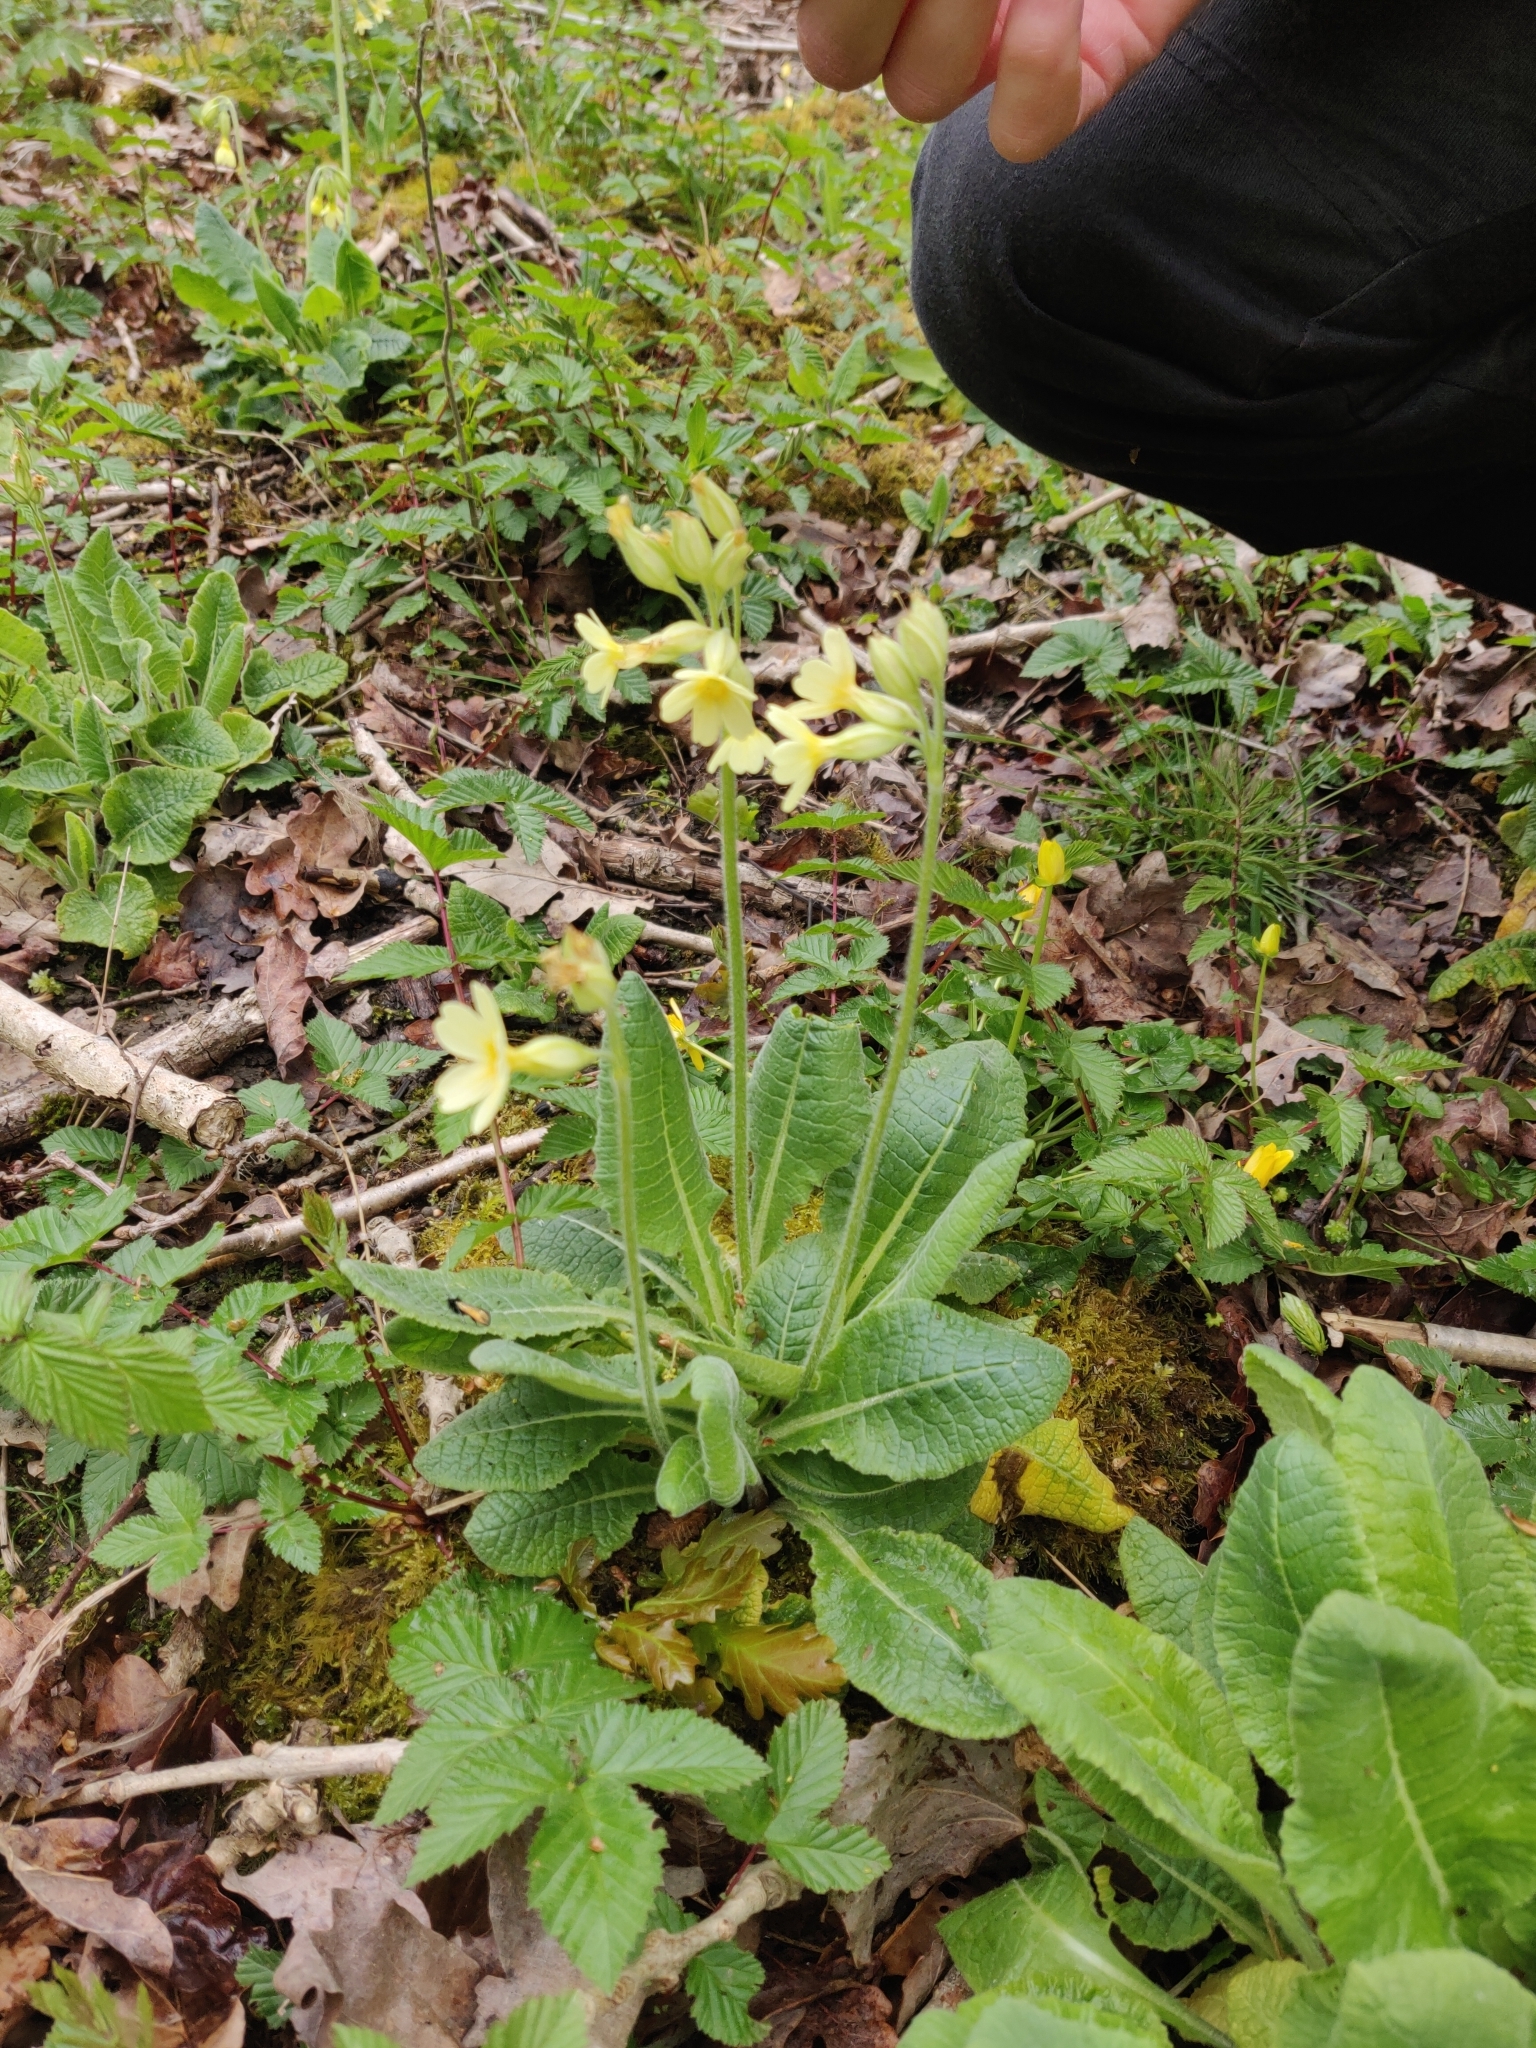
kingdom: Plantae
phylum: Tracheophyta
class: Magnoliopsida
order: Ericales
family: Primulaceae
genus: Primula
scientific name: Primula elatior
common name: Oxlip
